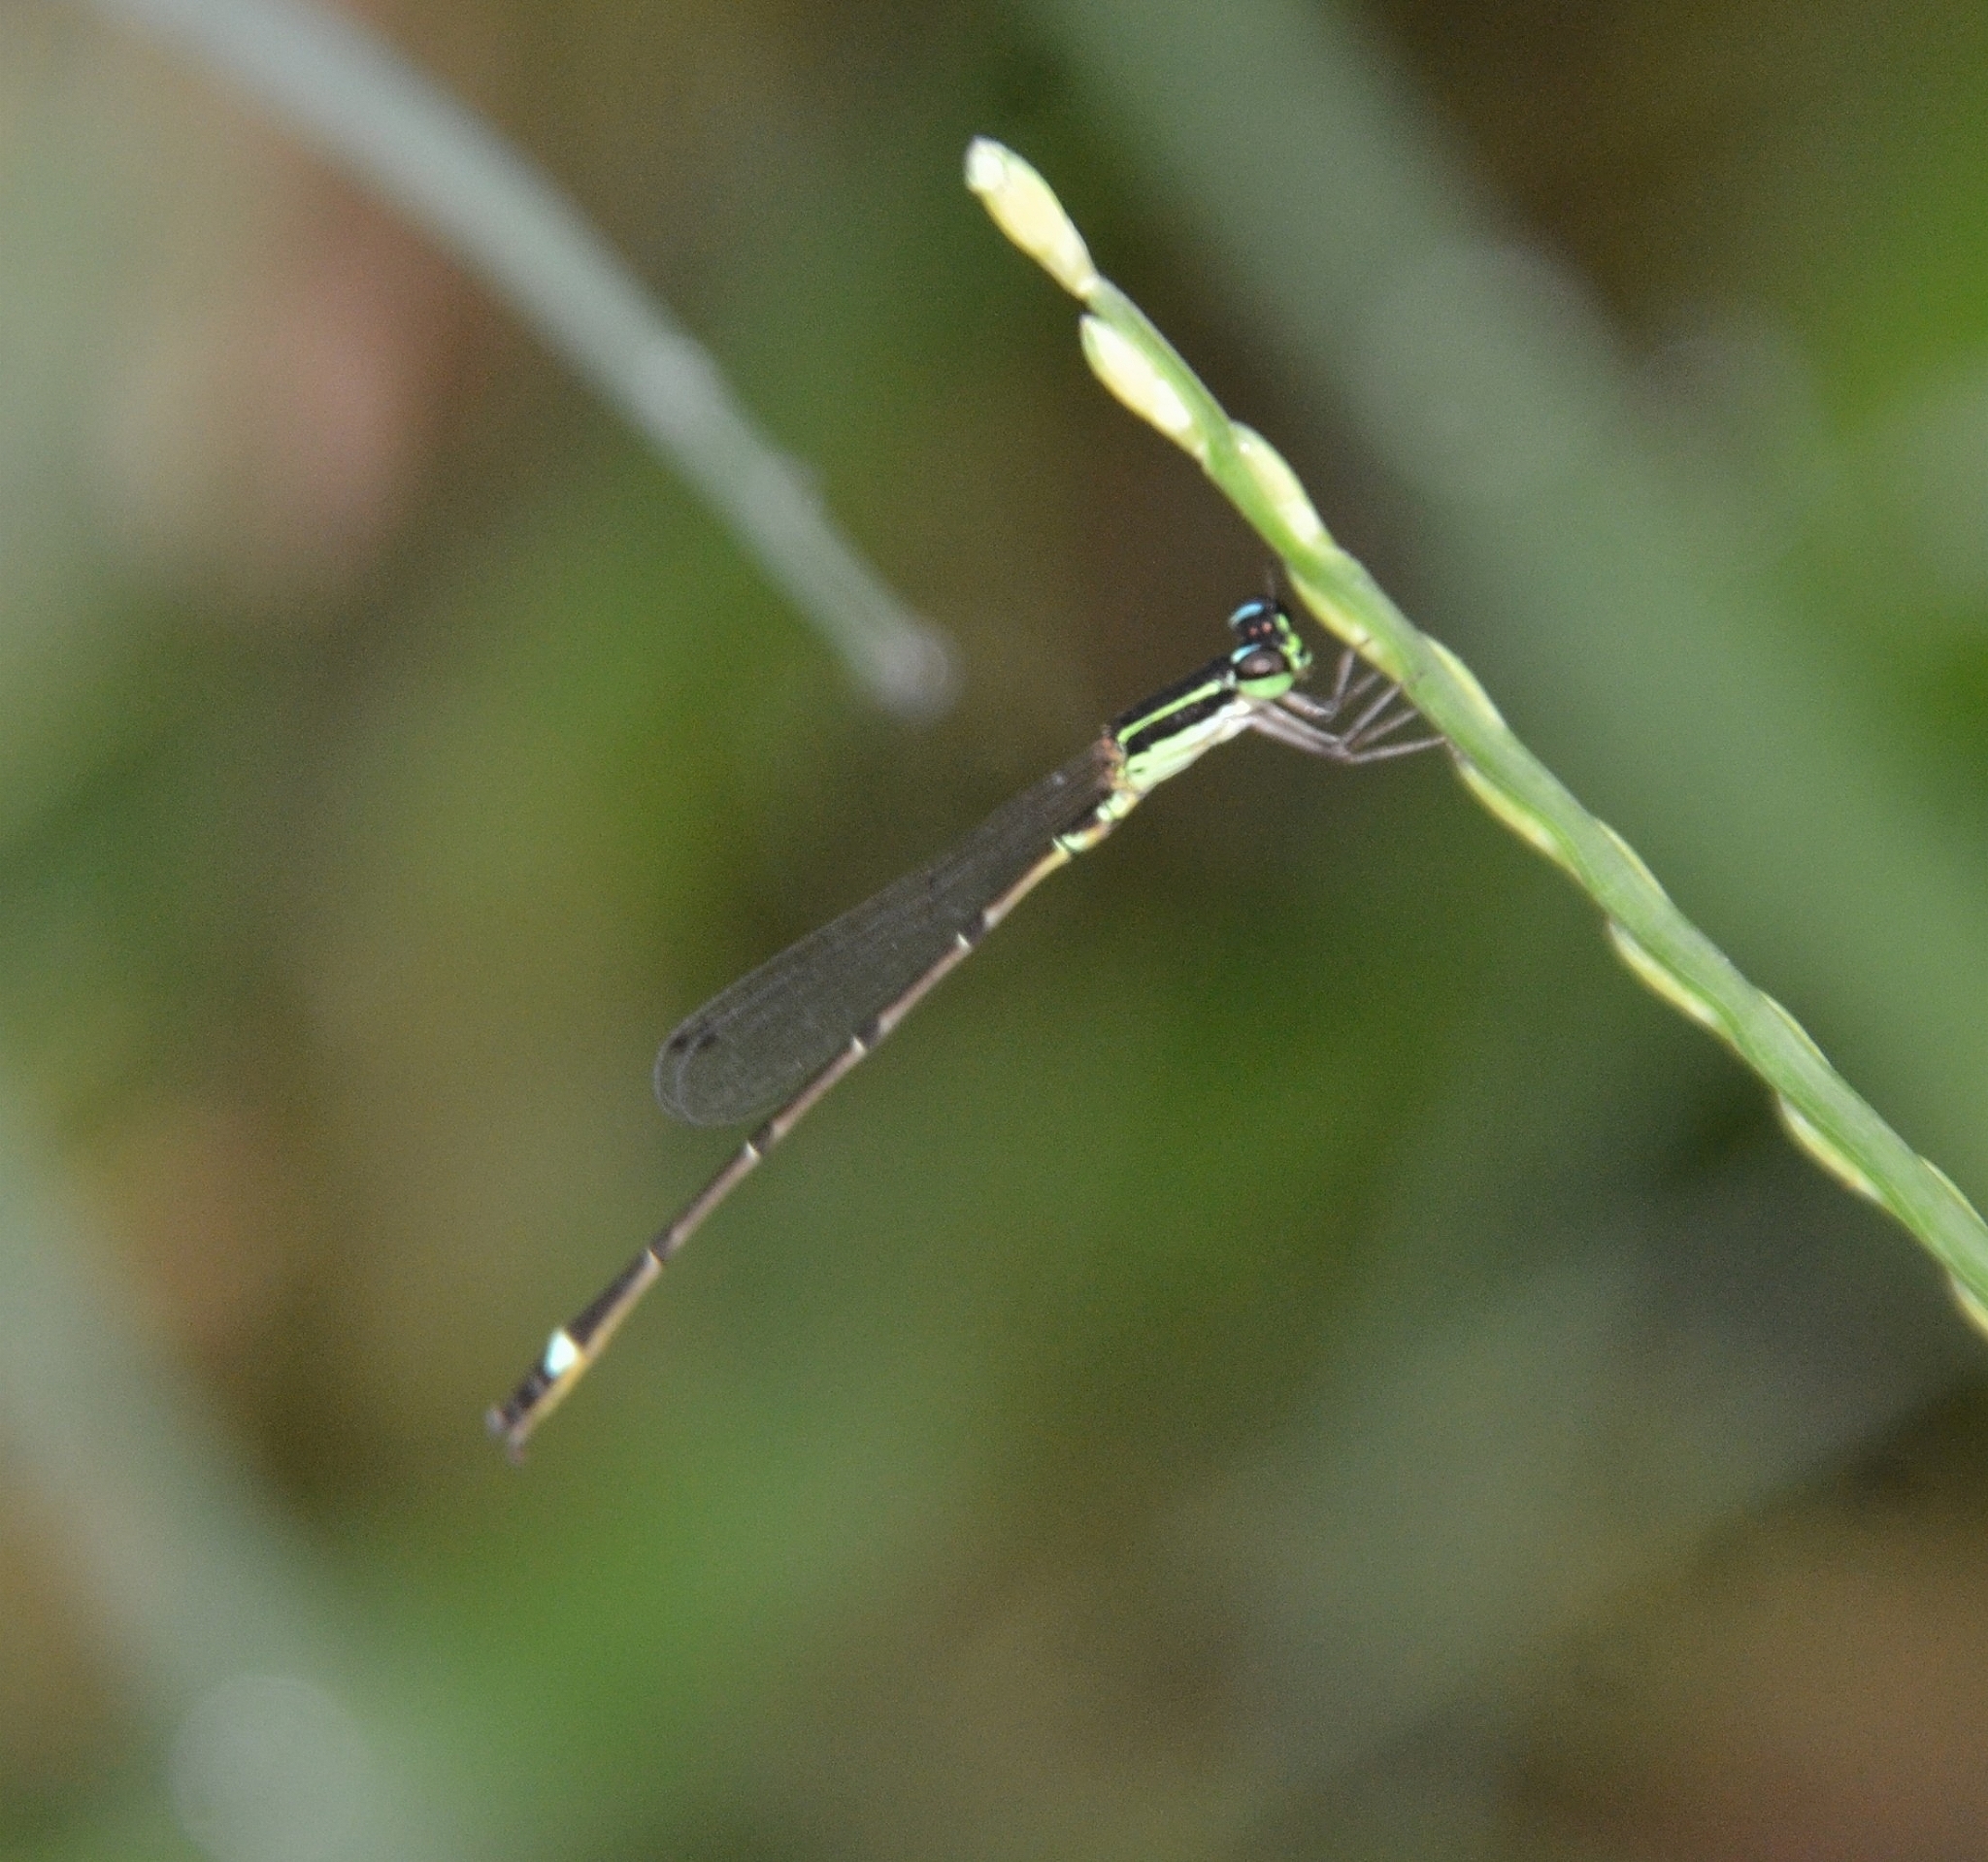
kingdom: Animalia
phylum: Arthropoda
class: Insecta
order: Odonata
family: Coenagrionidae
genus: Mortonagrion
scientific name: Mortonagrion varralli
